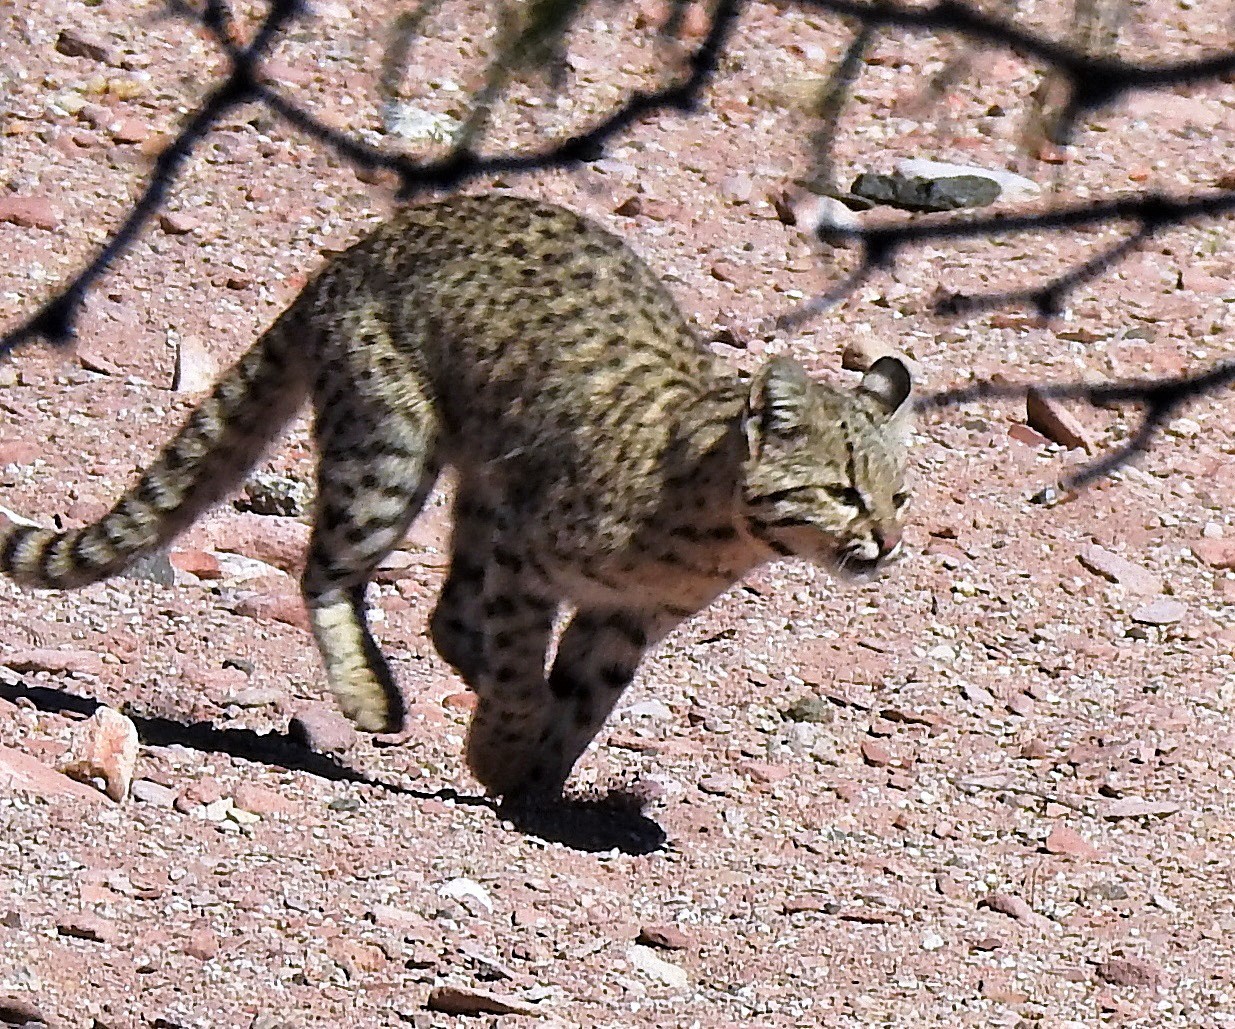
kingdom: Animalia
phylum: Chordata
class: Mammalia
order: Carnivora
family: Felidae
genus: Leopardus
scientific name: Leopardus geoffroyi
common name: Geoffroy's cat
